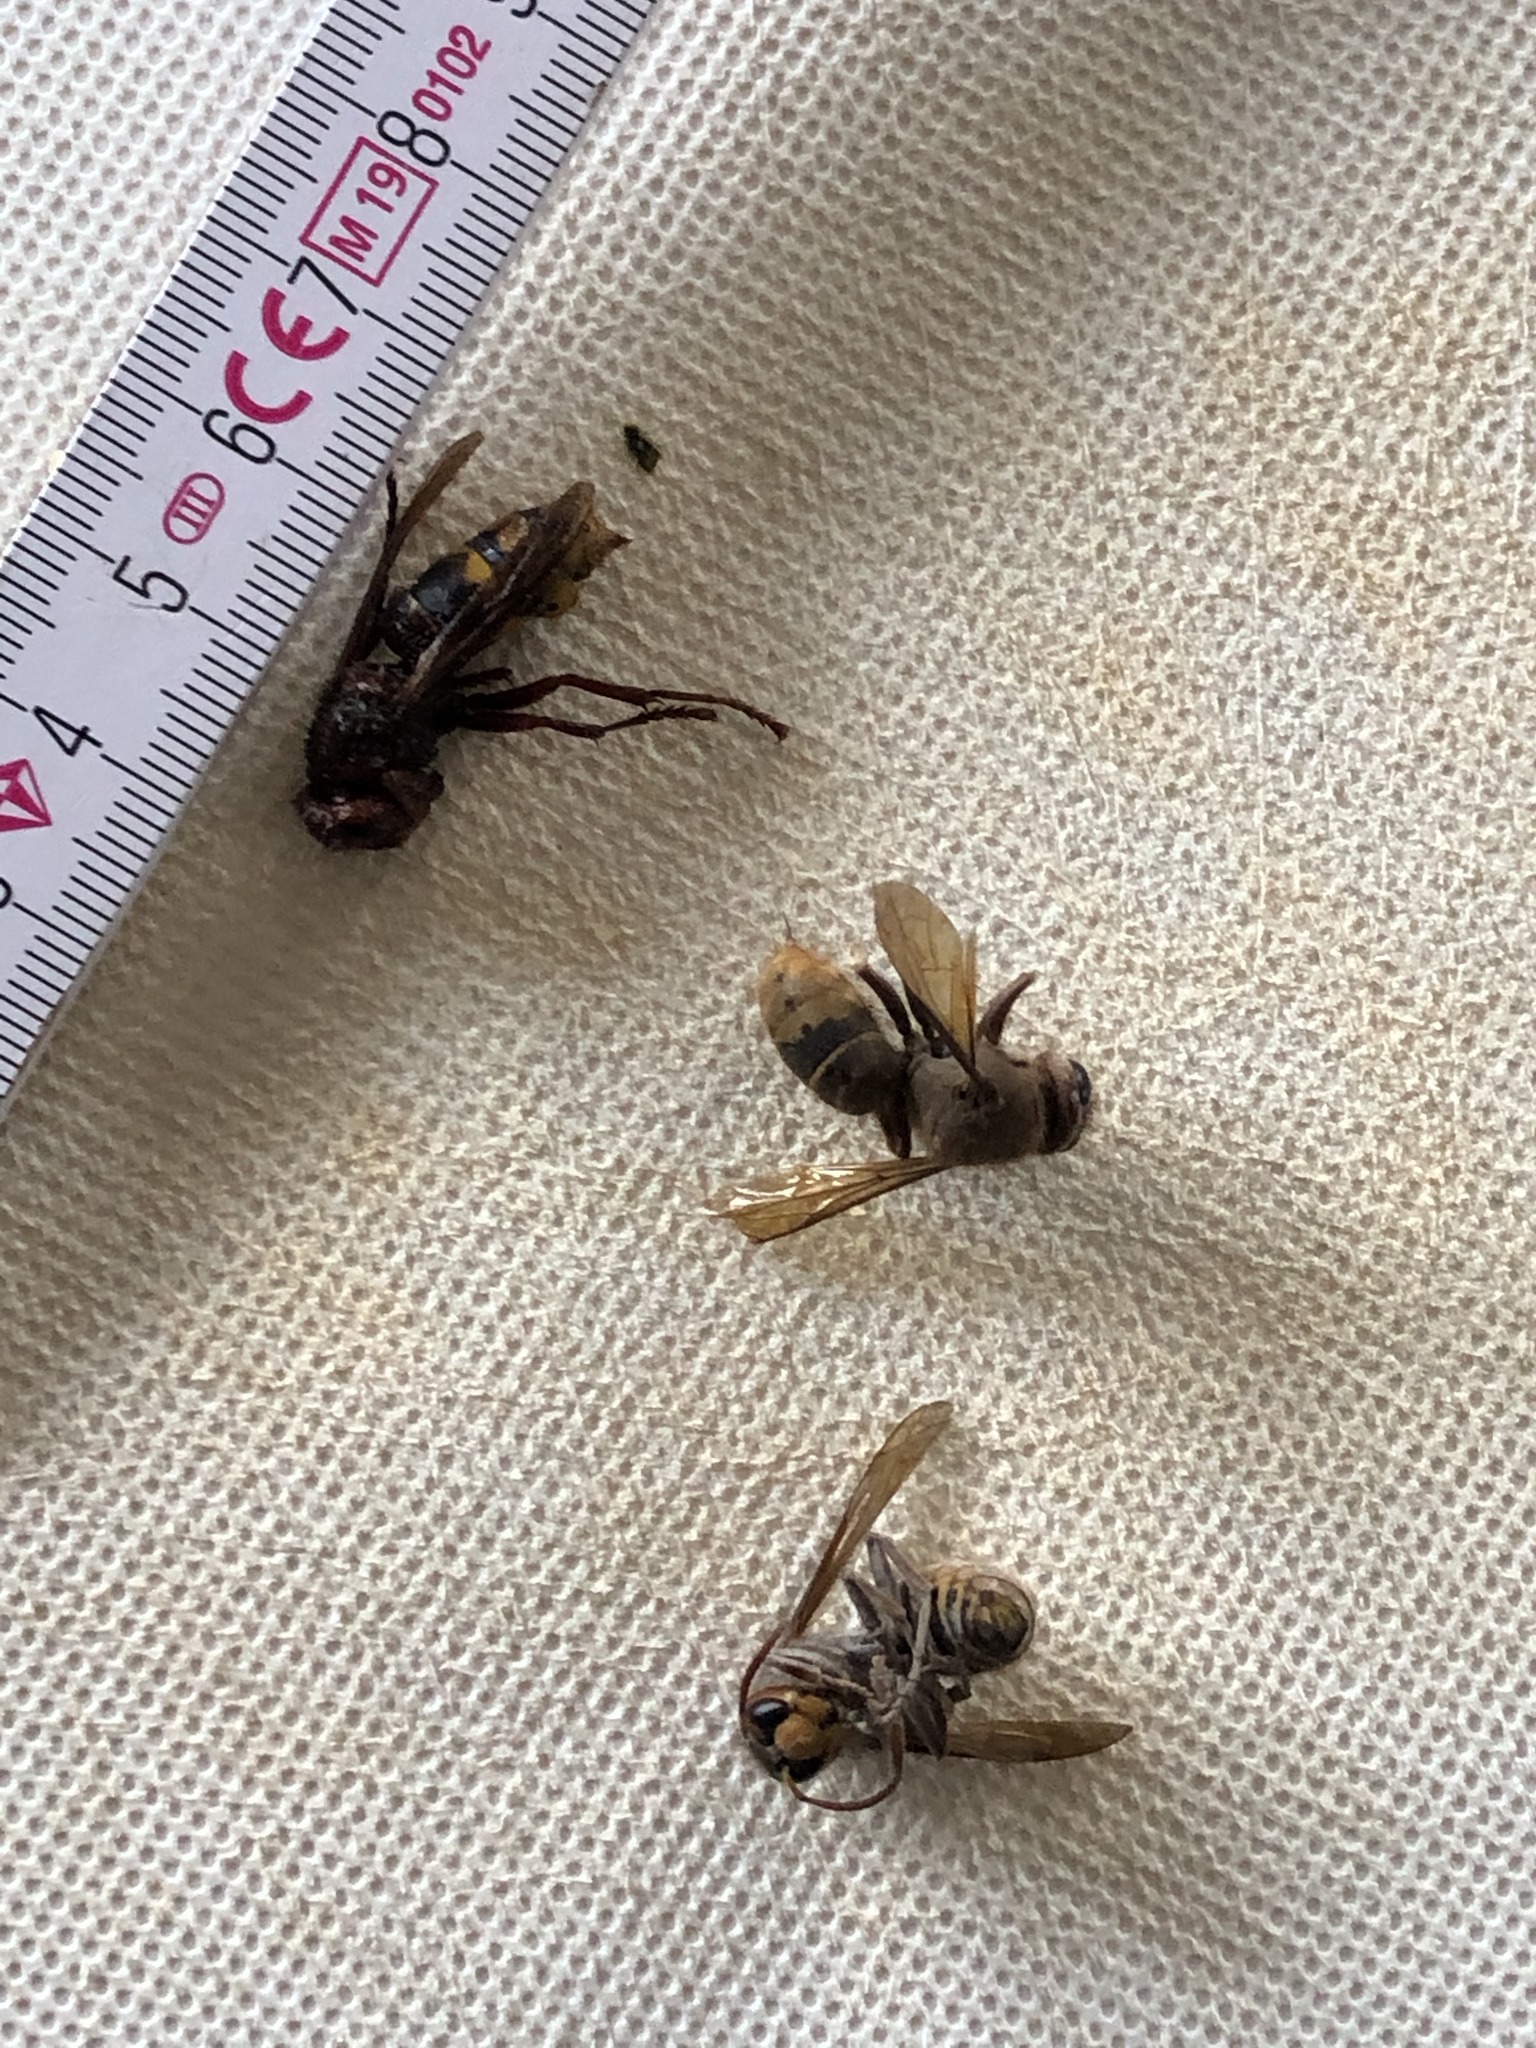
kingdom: Animalia
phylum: Arthropoda
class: Insecta
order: Hymenoptera
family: Vespidae
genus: Vespa
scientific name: Vespa crabro
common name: Hornet
